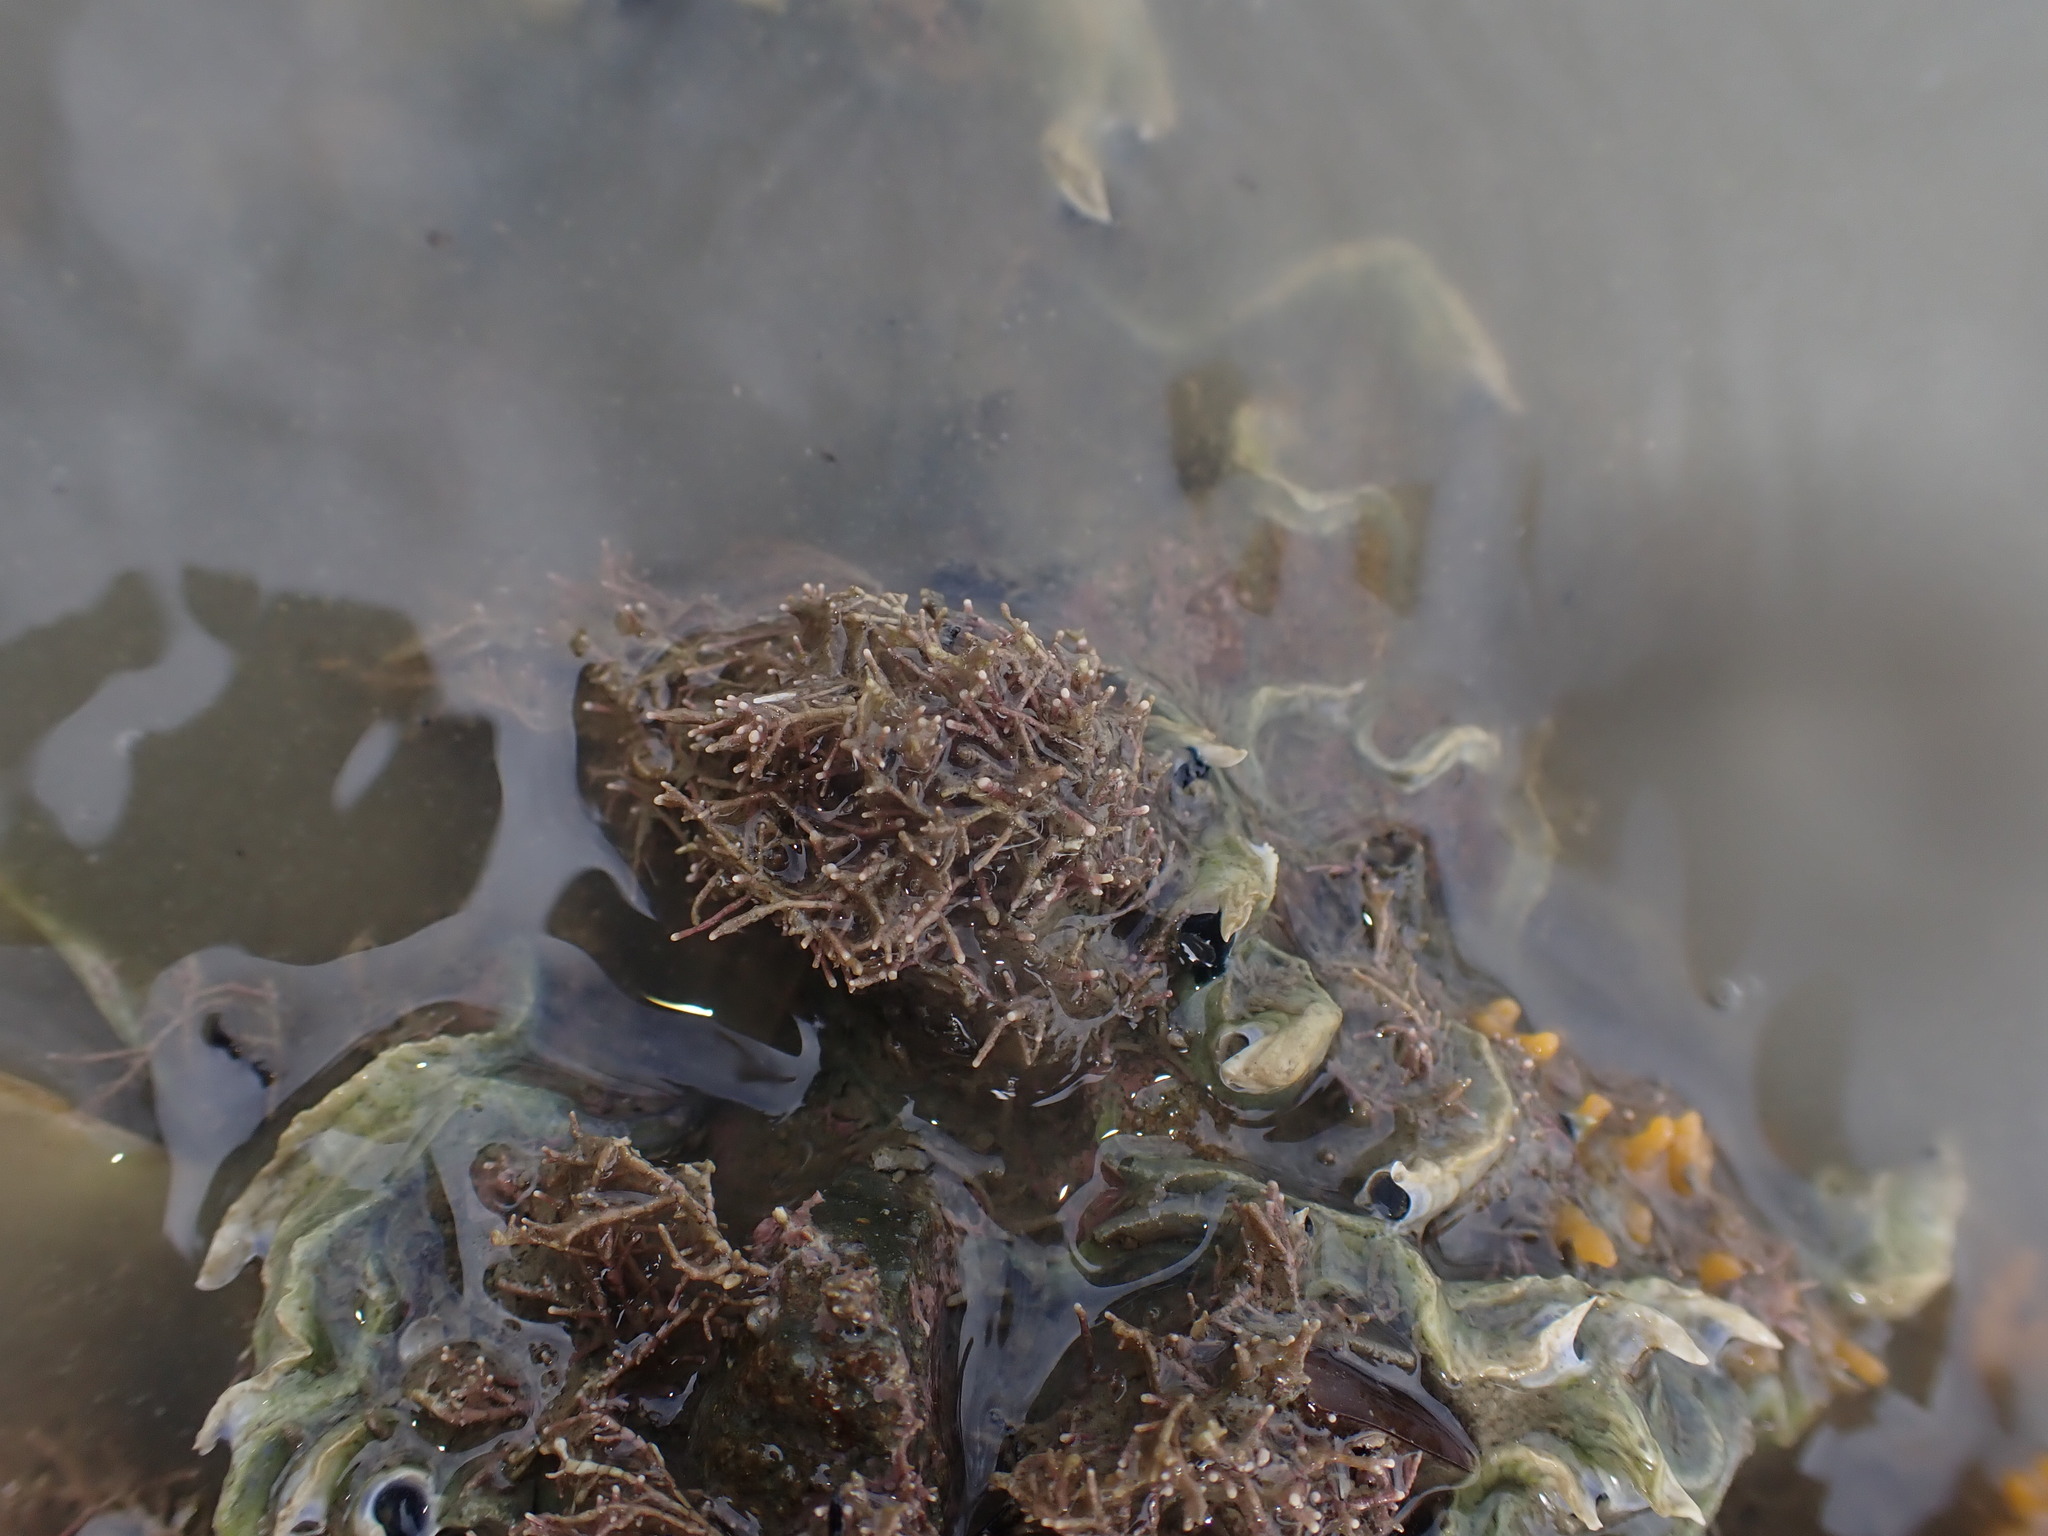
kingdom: Plantae
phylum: Rhodophyta
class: Florideophyceae
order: Corallinales
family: Corallinaceae
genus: Corallina
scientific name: Corallina officinalis
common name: Coral weed
